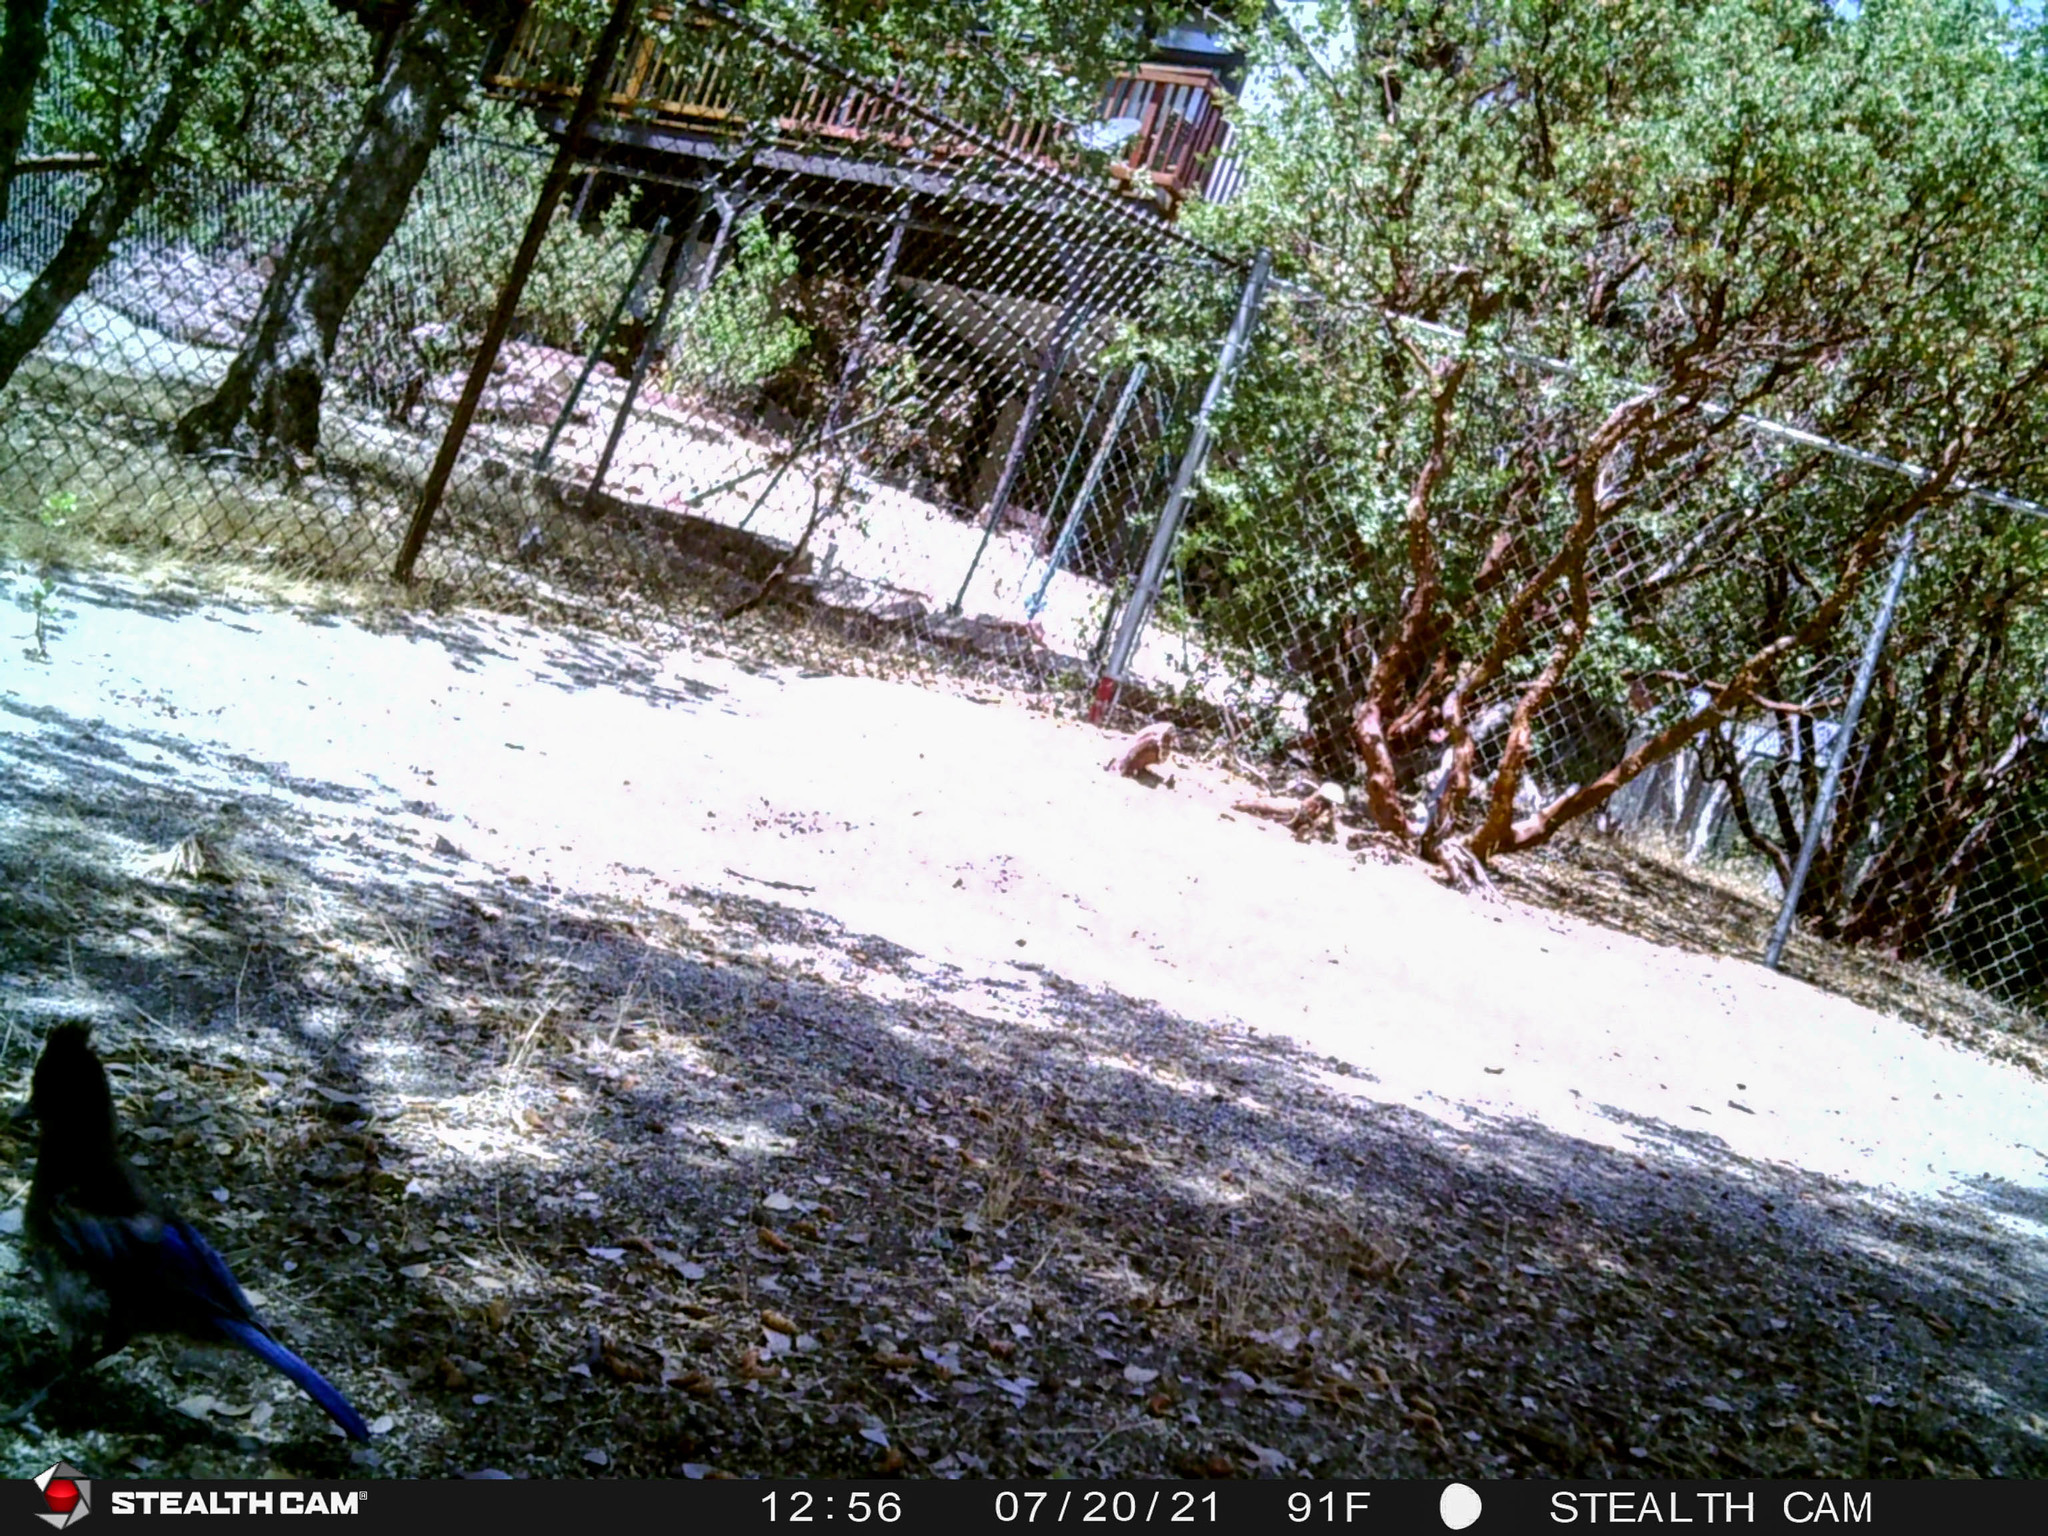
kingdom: Animalia
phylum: Chordata
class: Aves
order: Passeriformes
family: Corvidae
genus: Cyanocitta
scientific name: Cyanocitta stelleri
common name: Steller's jay
